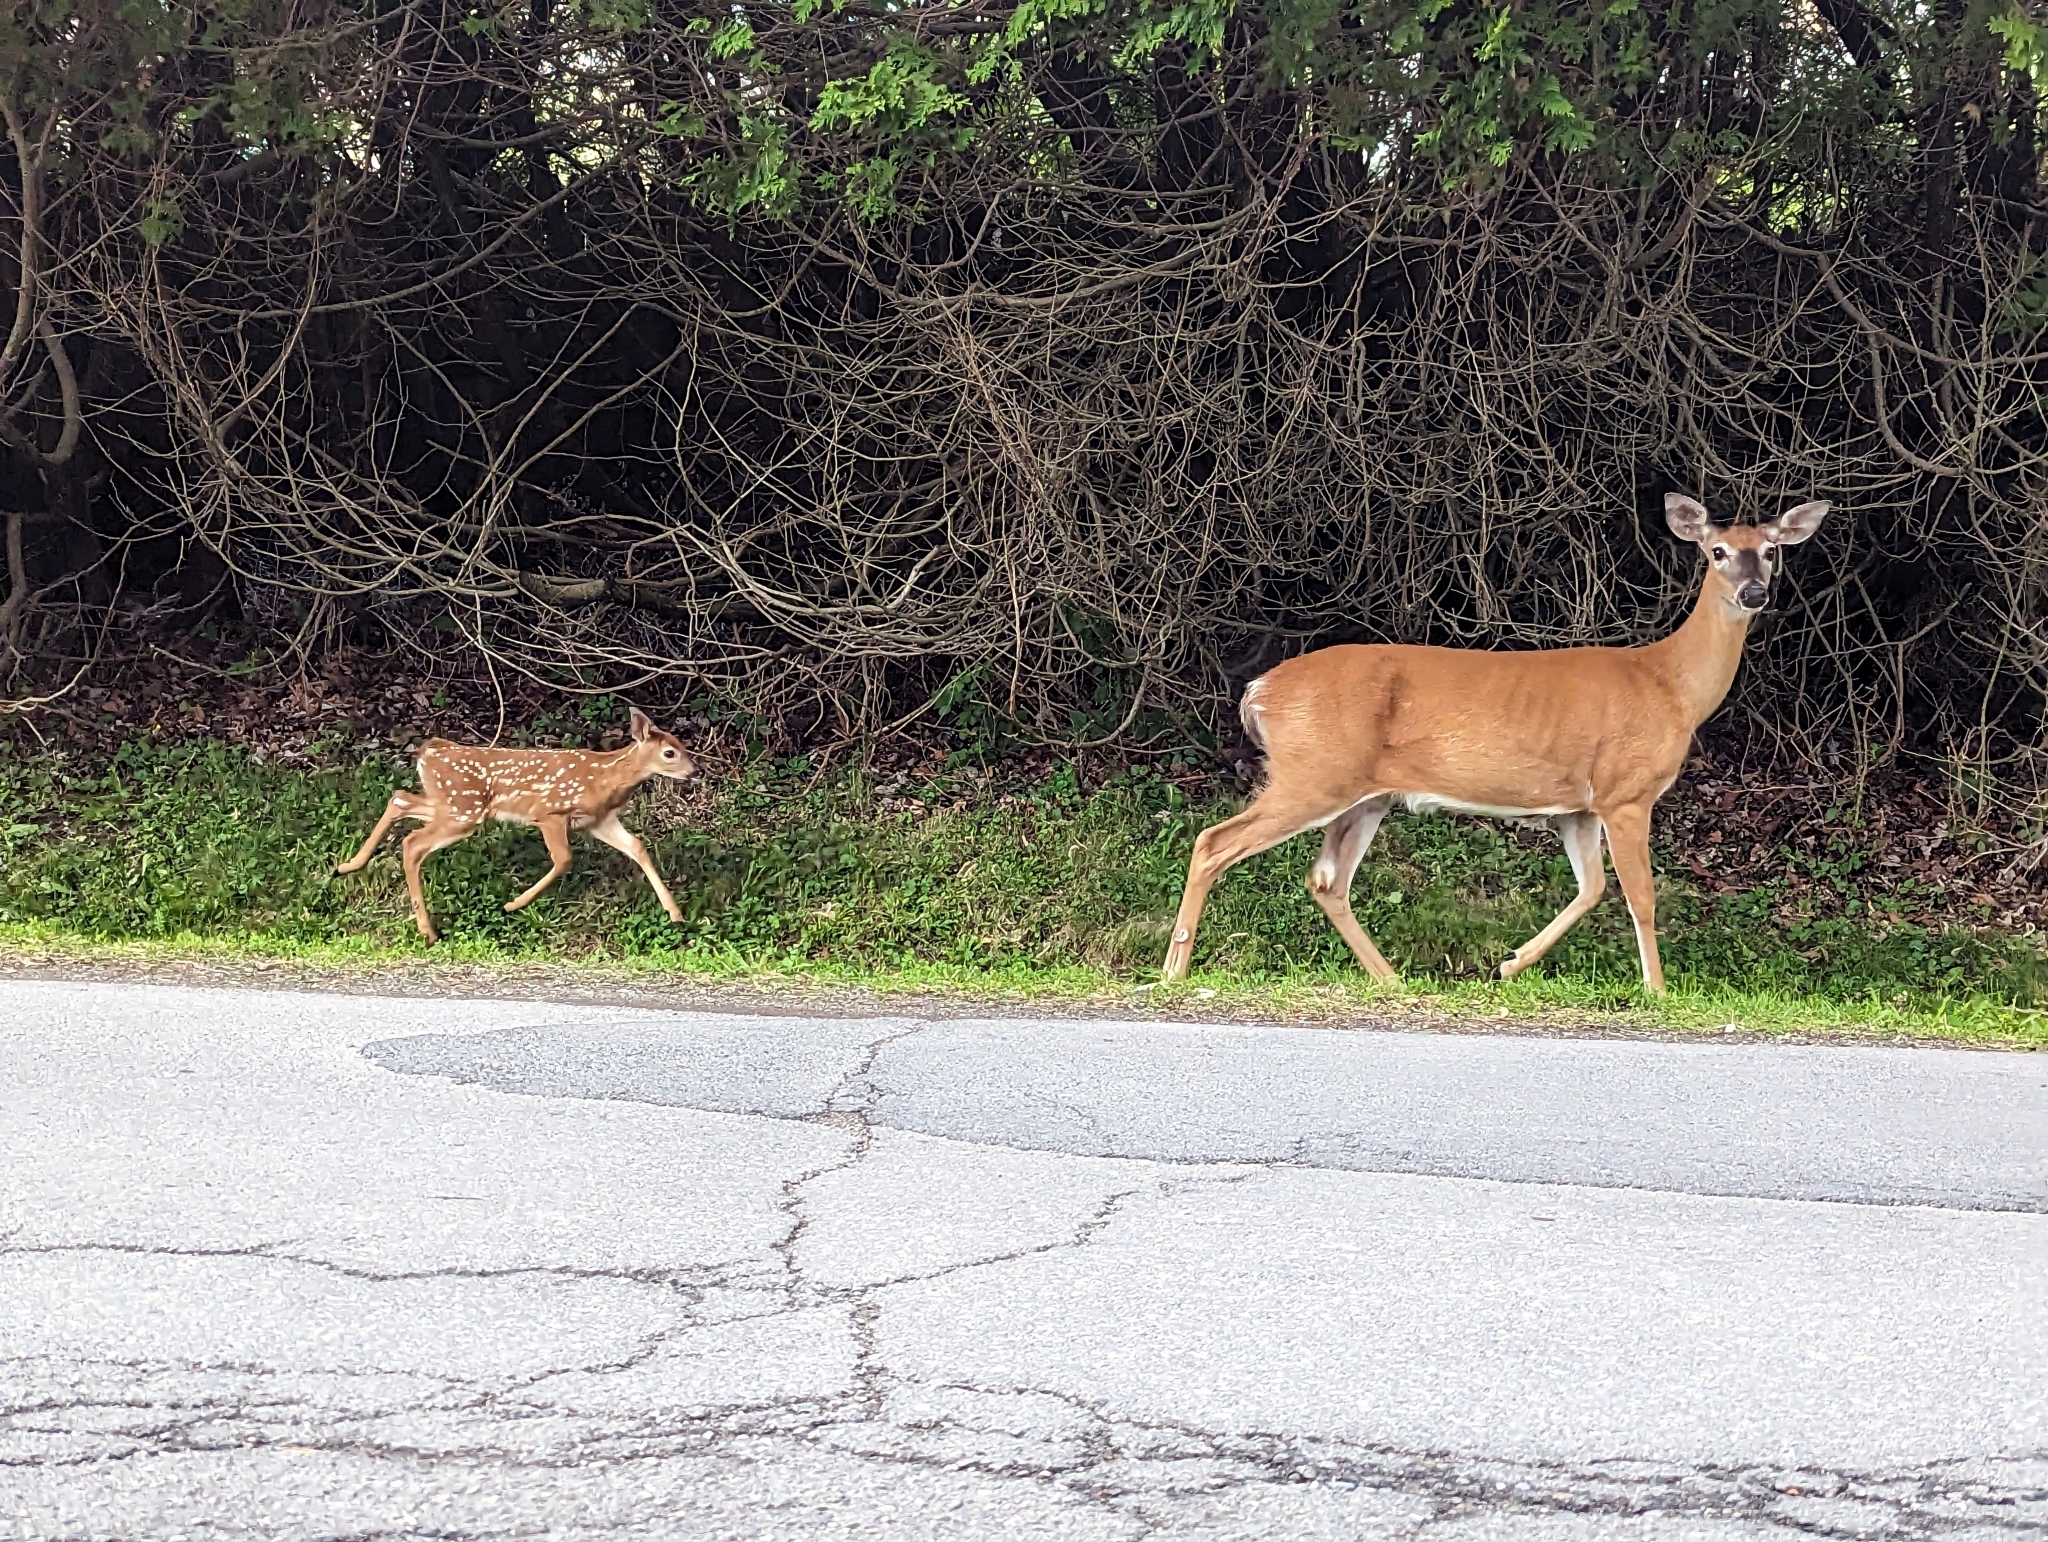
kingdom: Animalia
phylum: Chordata
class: Mammalia
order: Artiodactyla
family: Cervidae
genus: Odocoileus
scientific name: Odocoileus virginianus
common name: White-tailed deer
